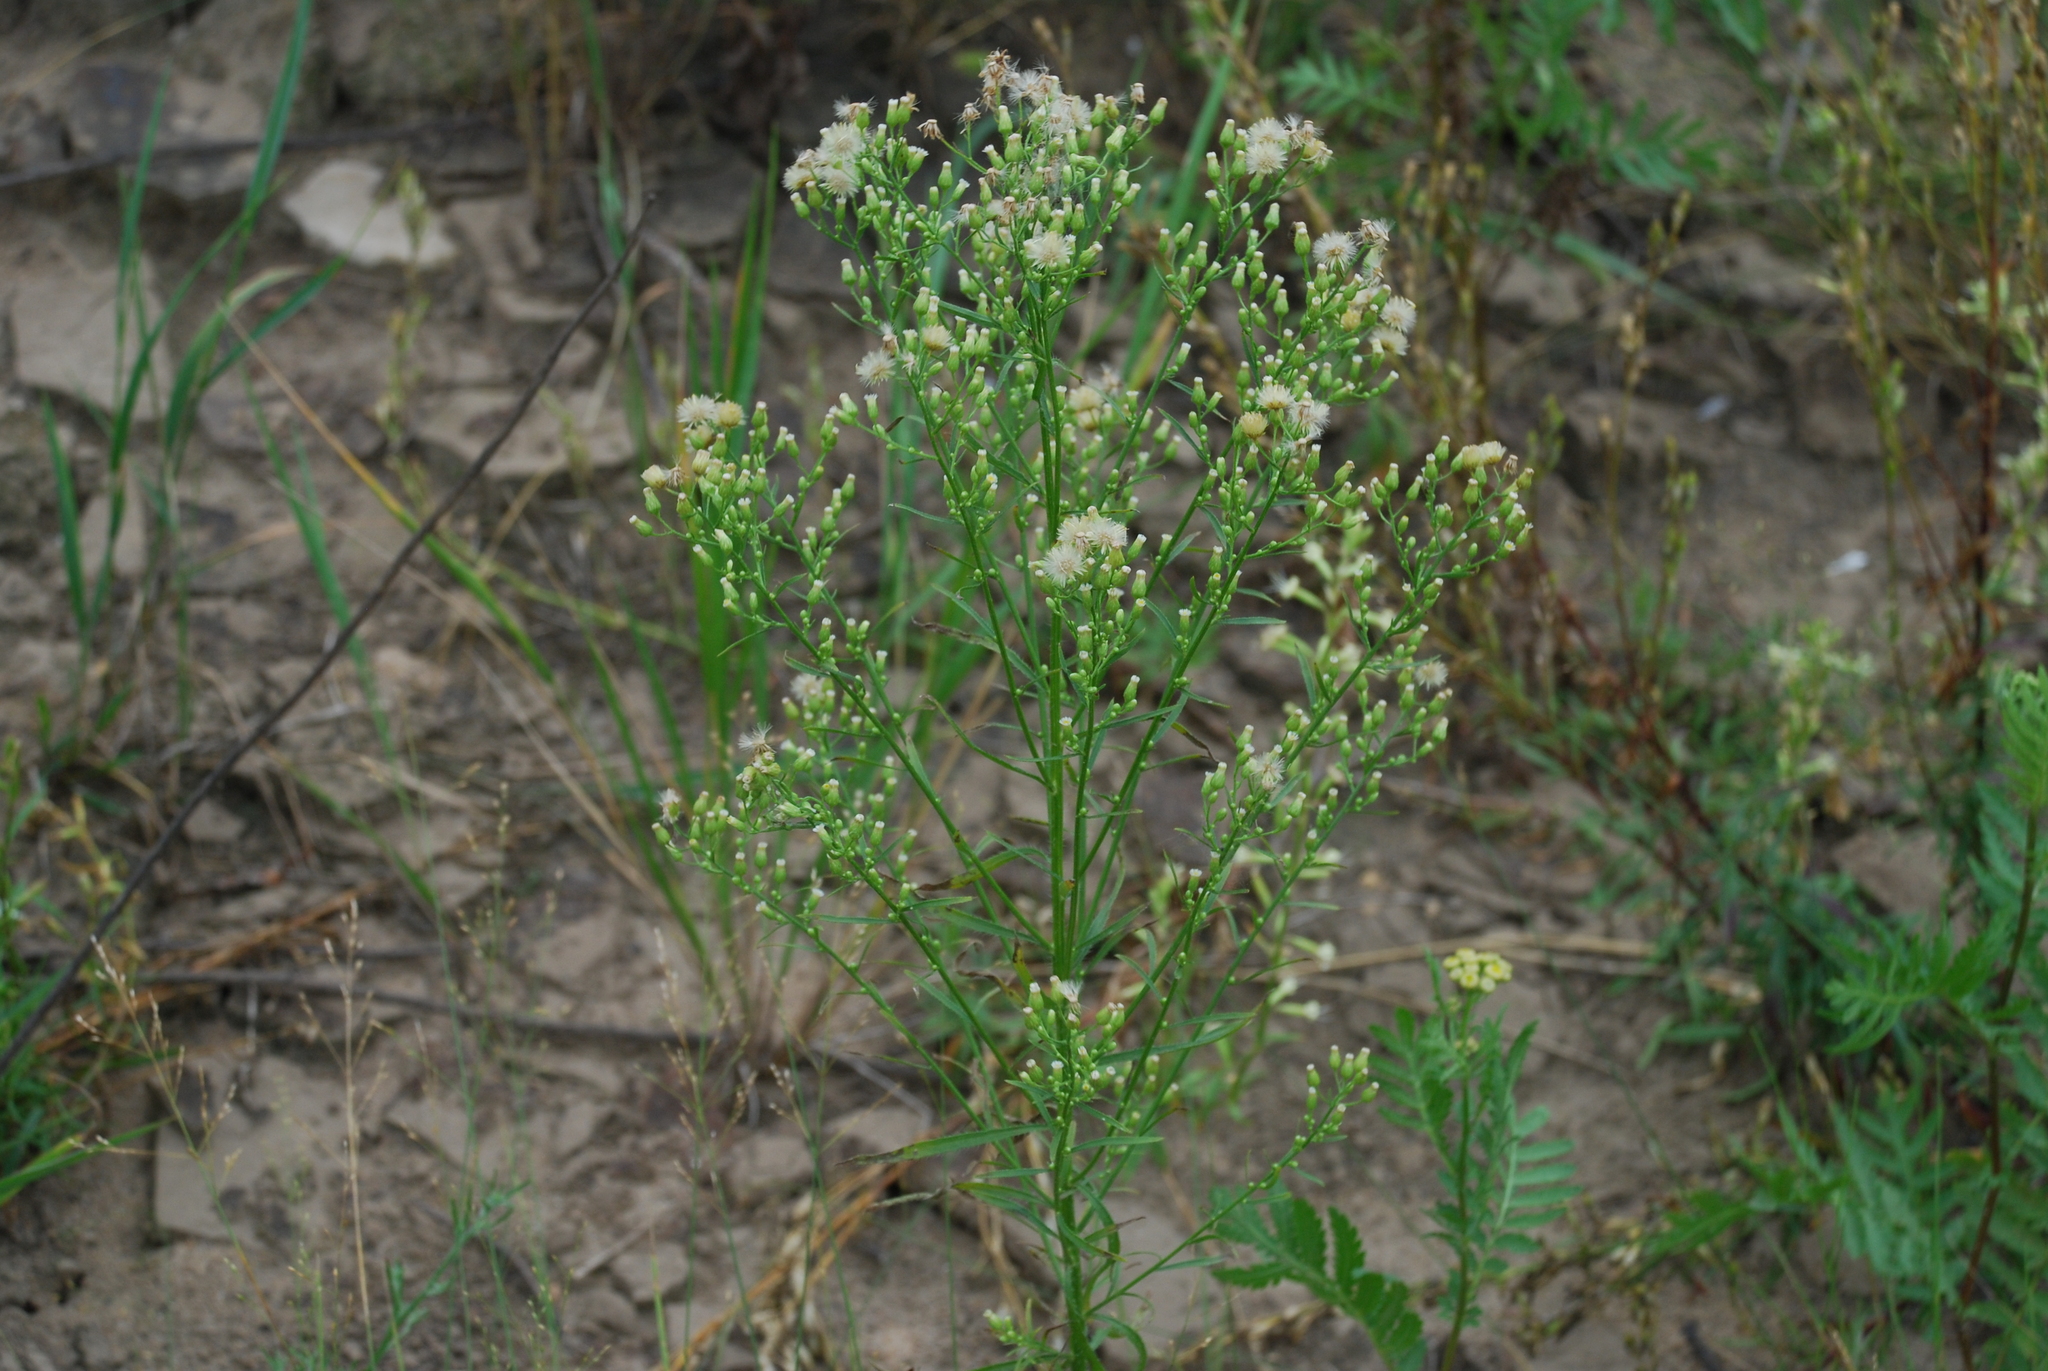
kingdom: Plantae
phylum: Tracheophyta
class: Magnoliopsida
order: Asterales
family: Asteraceae
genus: Erigeron
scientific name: Erigeron canadensis
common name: Canadian fleabane
